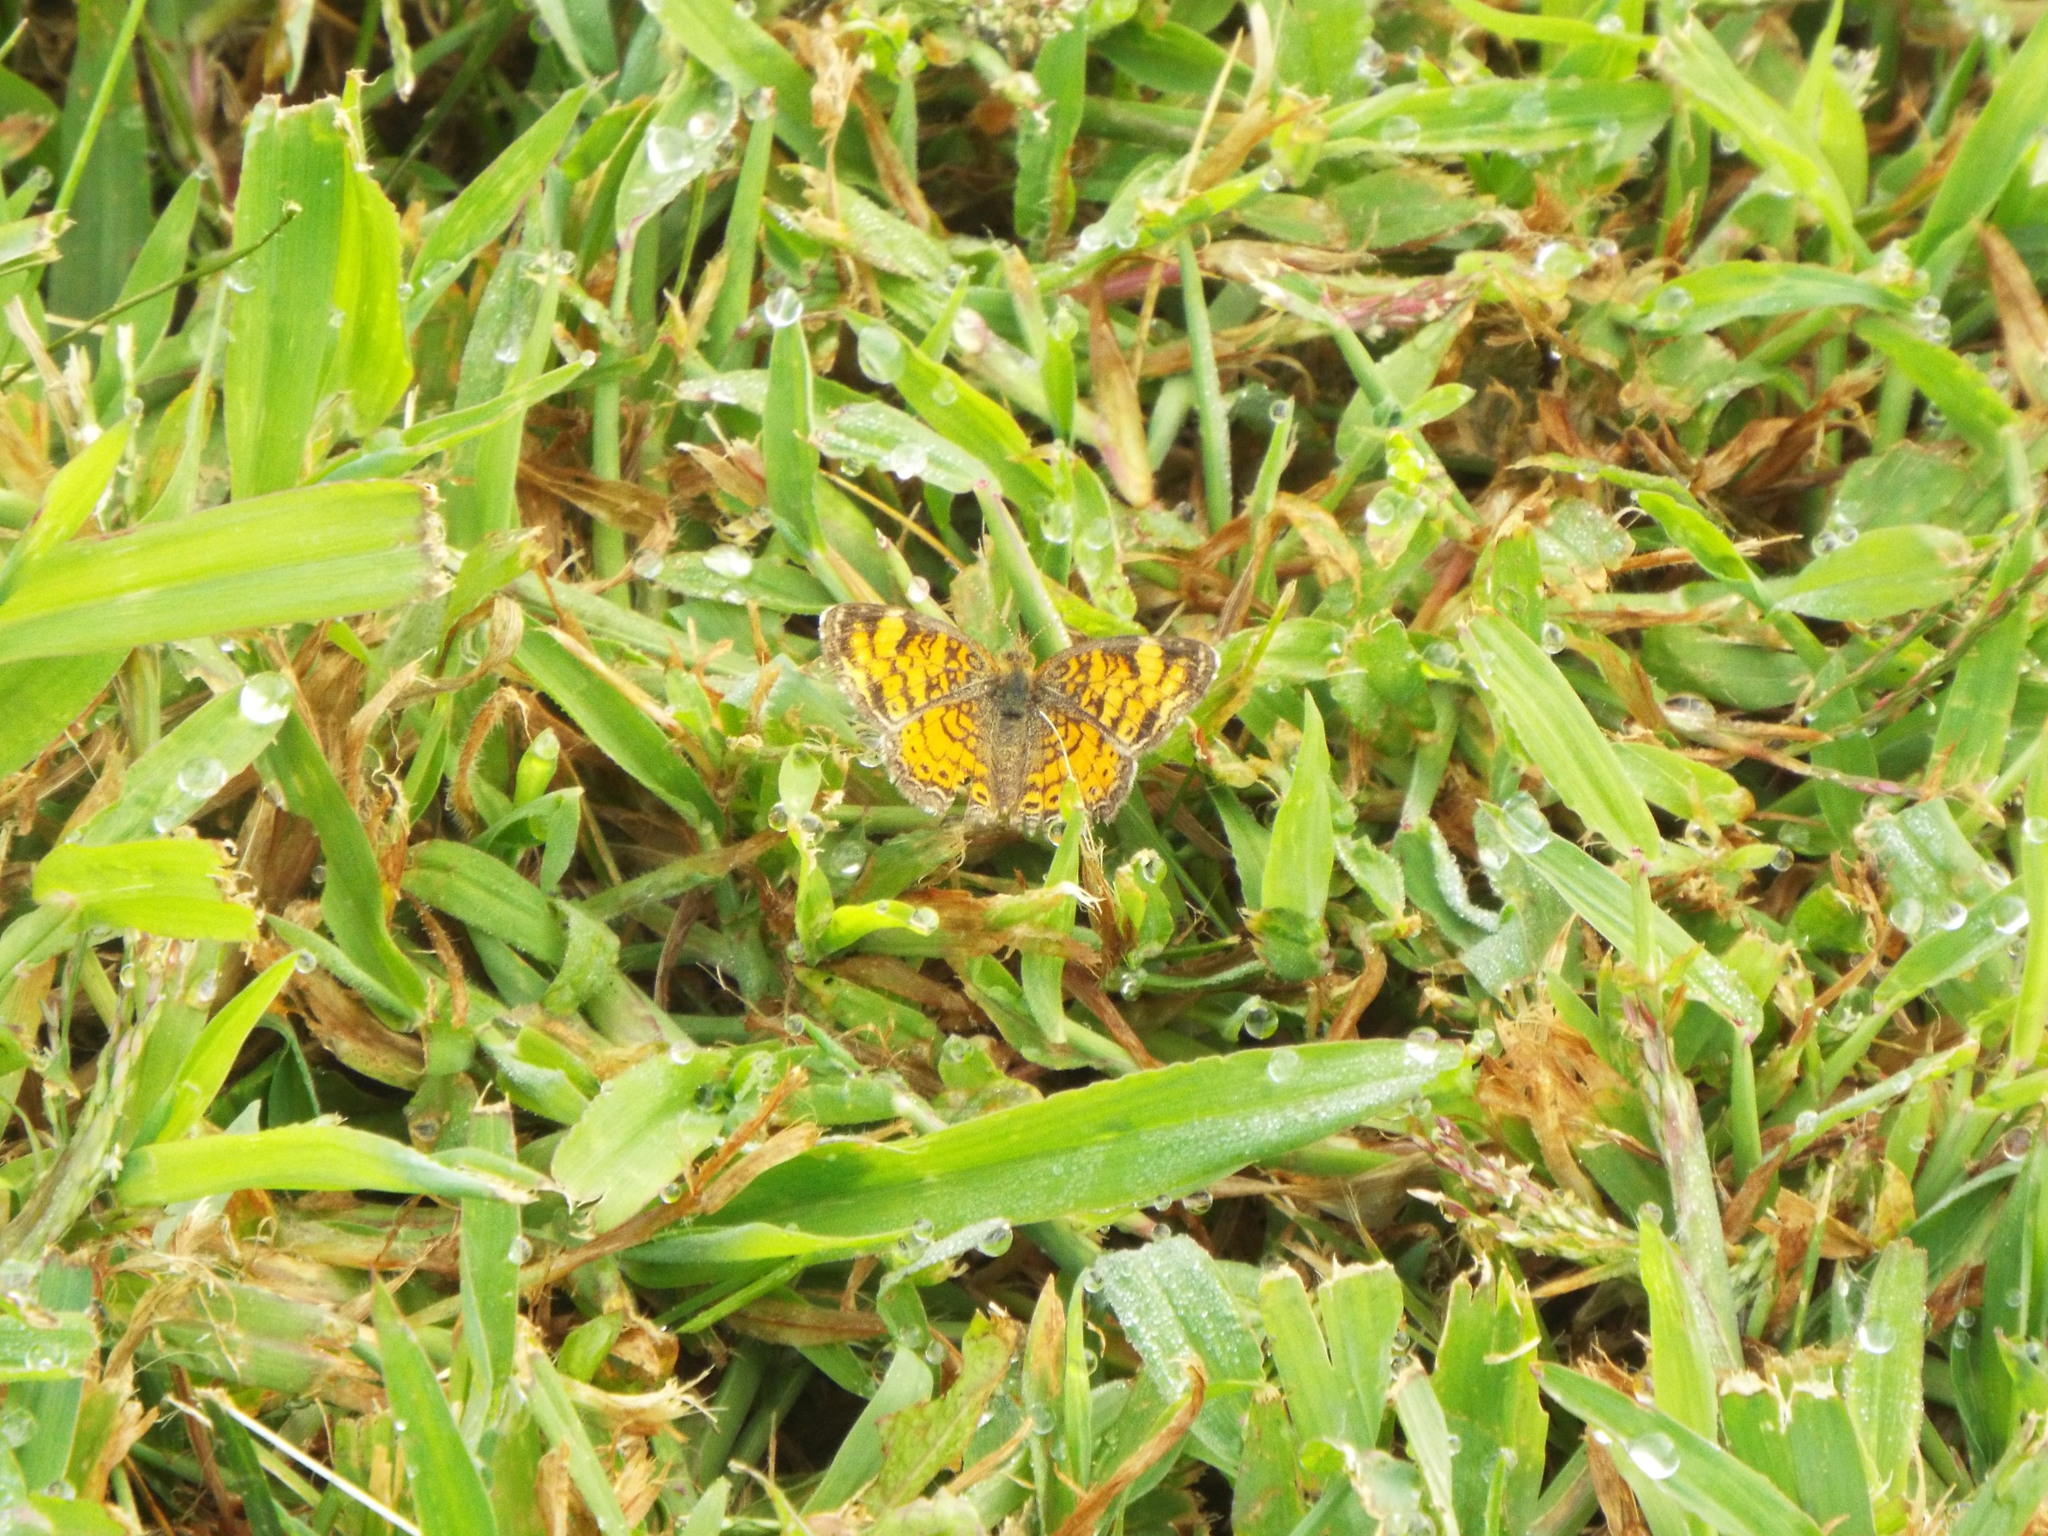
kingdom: Animalia
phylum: Arthropoda
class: Insecta
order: Lepidoptera
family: Nymphalidae
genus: Phyciodes
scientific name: Phyciodes tharos
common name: Pearl crescent
